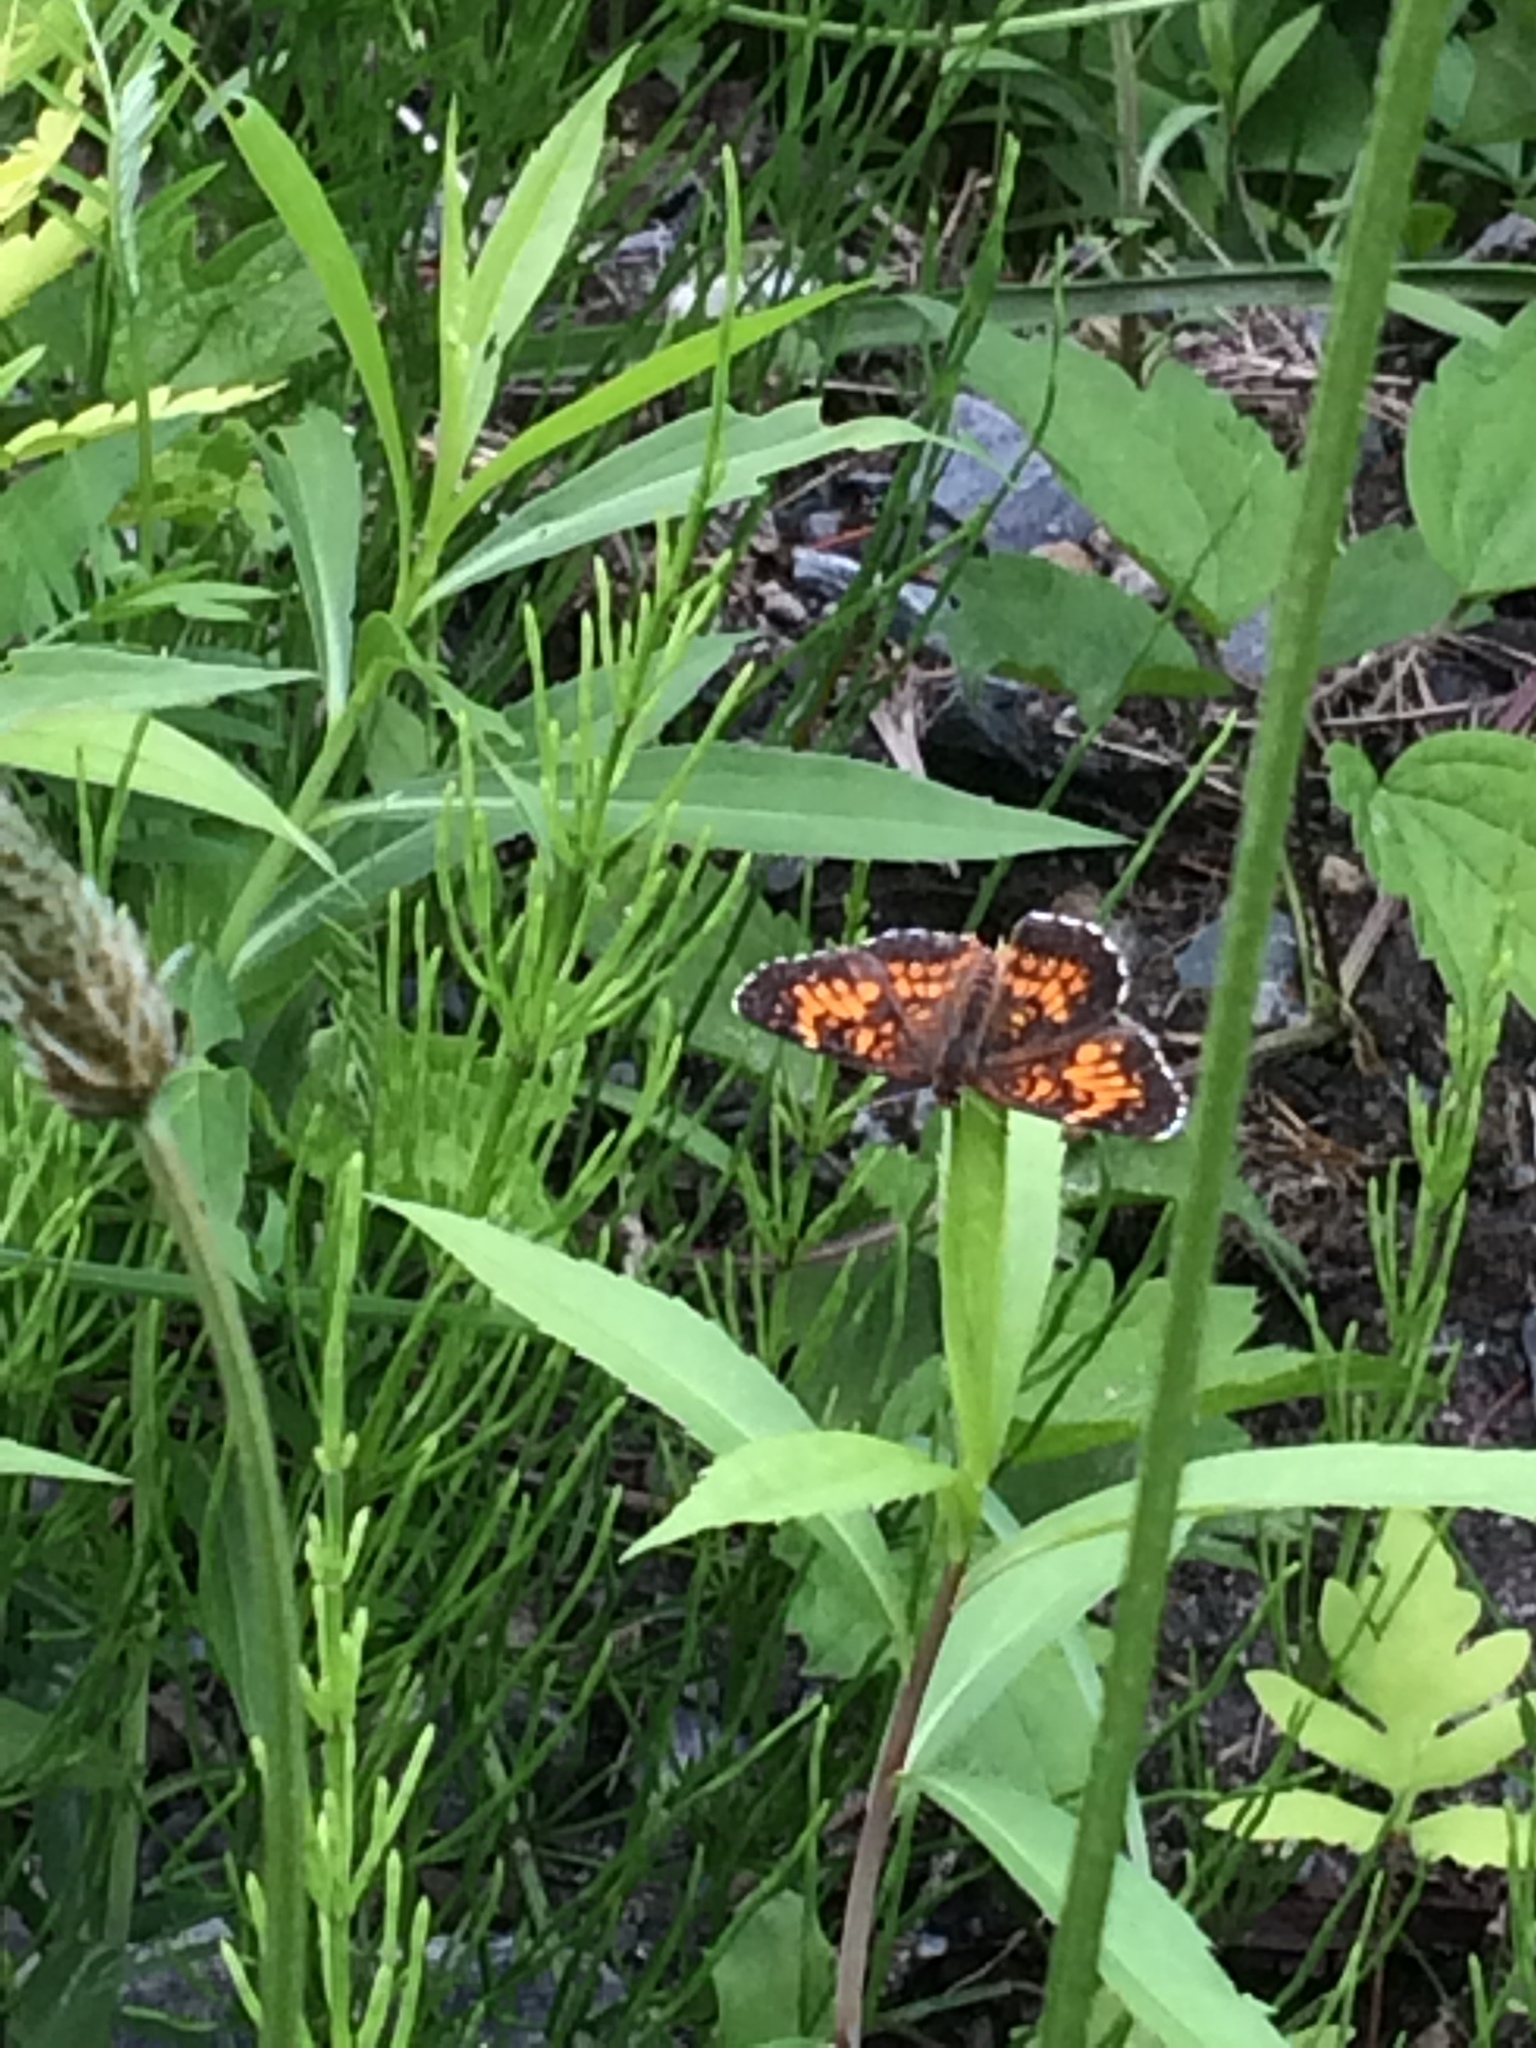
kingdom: Animalia
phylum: Arthropoda
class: Insecta
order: Lepidoptera
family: Nymphalidae
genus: Chlosyne
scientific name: Chlosyne harrisii
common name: Harris's checkerspot
